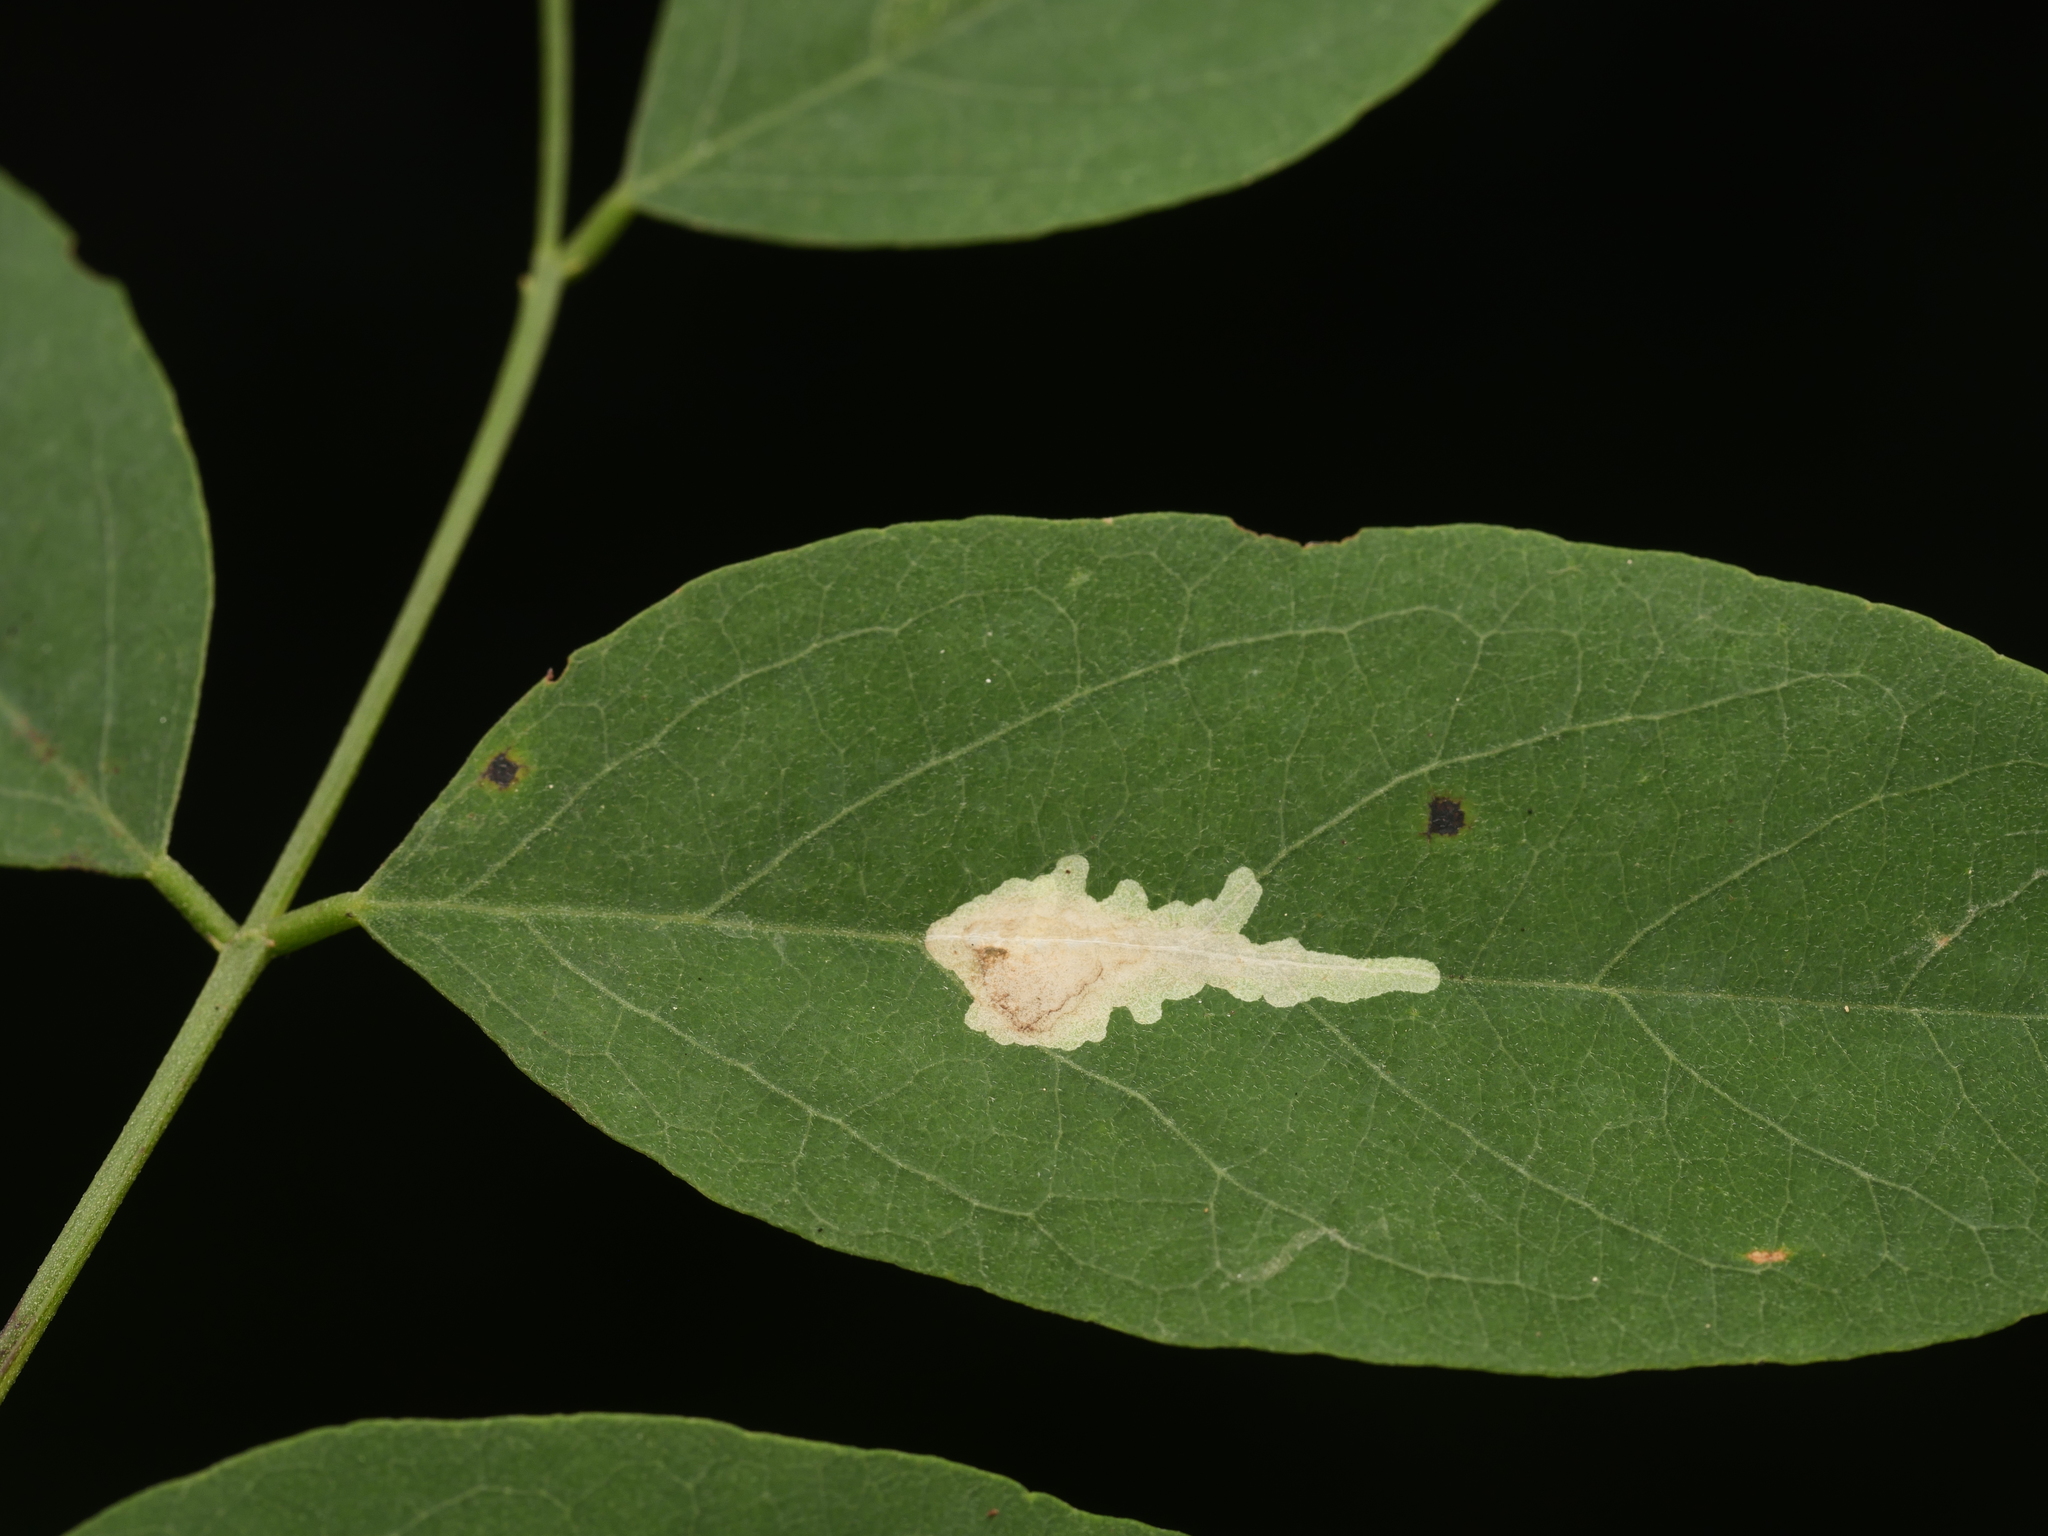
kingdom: Animalia
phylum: Arthropoda
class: Insecta
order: Lepidoptera
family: Gracillariidae
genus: Parectopa
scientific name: Parectopa robiniella
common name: Locust digitate leafminer
